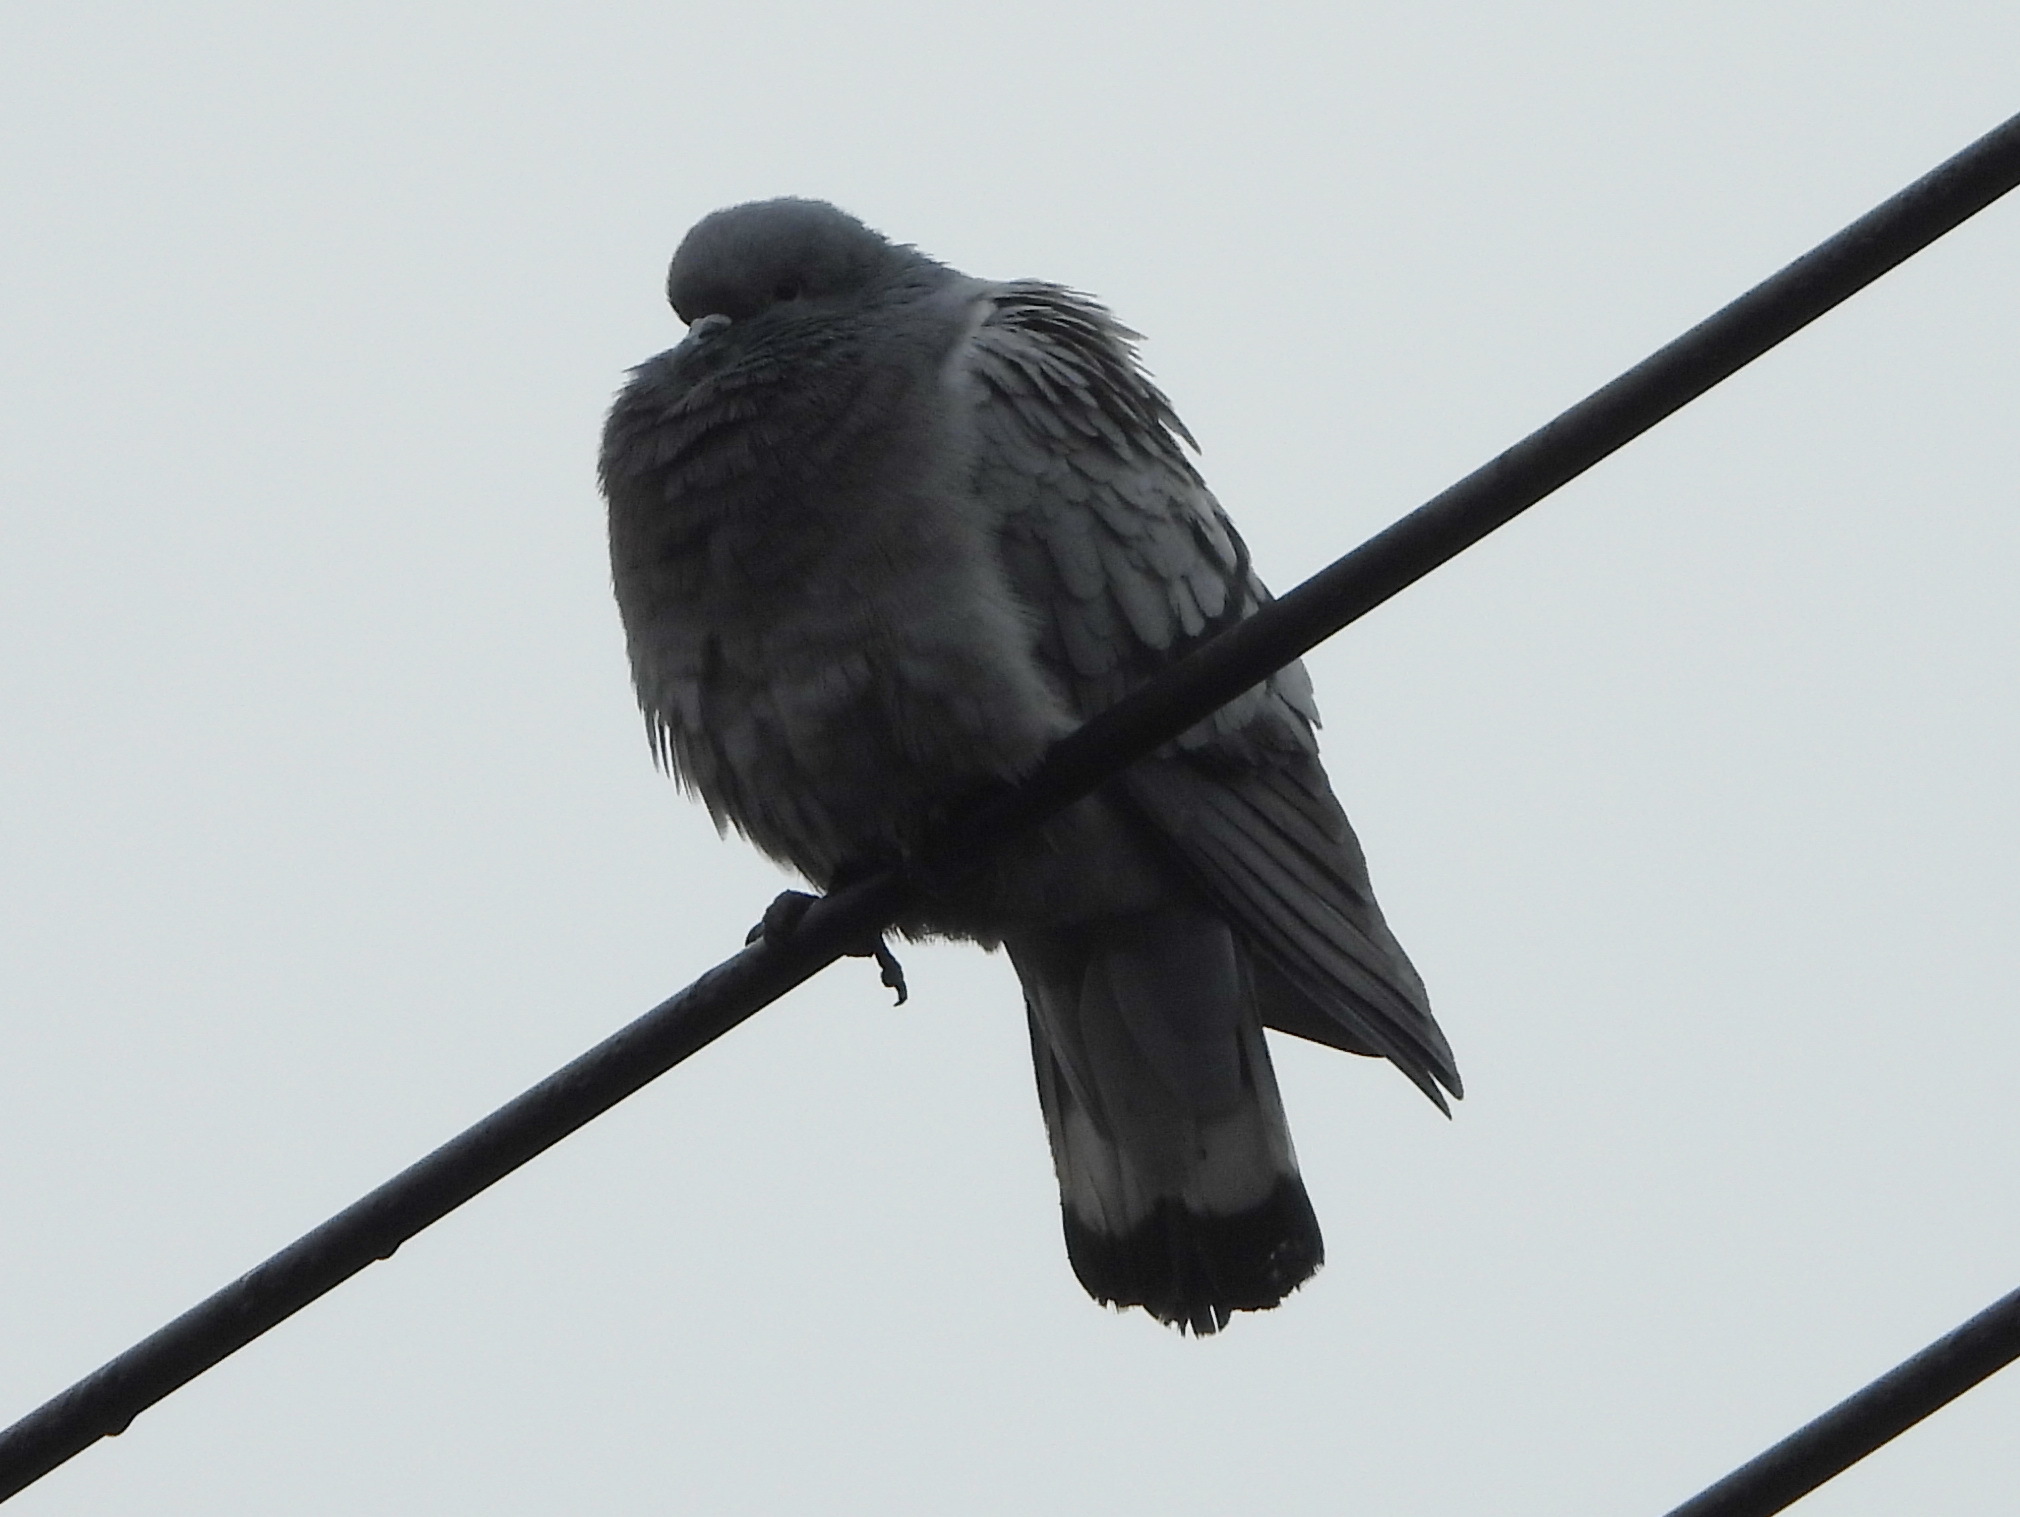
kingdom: Animalia
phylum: Chordata
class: Aves
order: Columbiformes
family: Columbidae
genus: Columba
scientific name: Columba rupestris
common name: Hill pigeon
